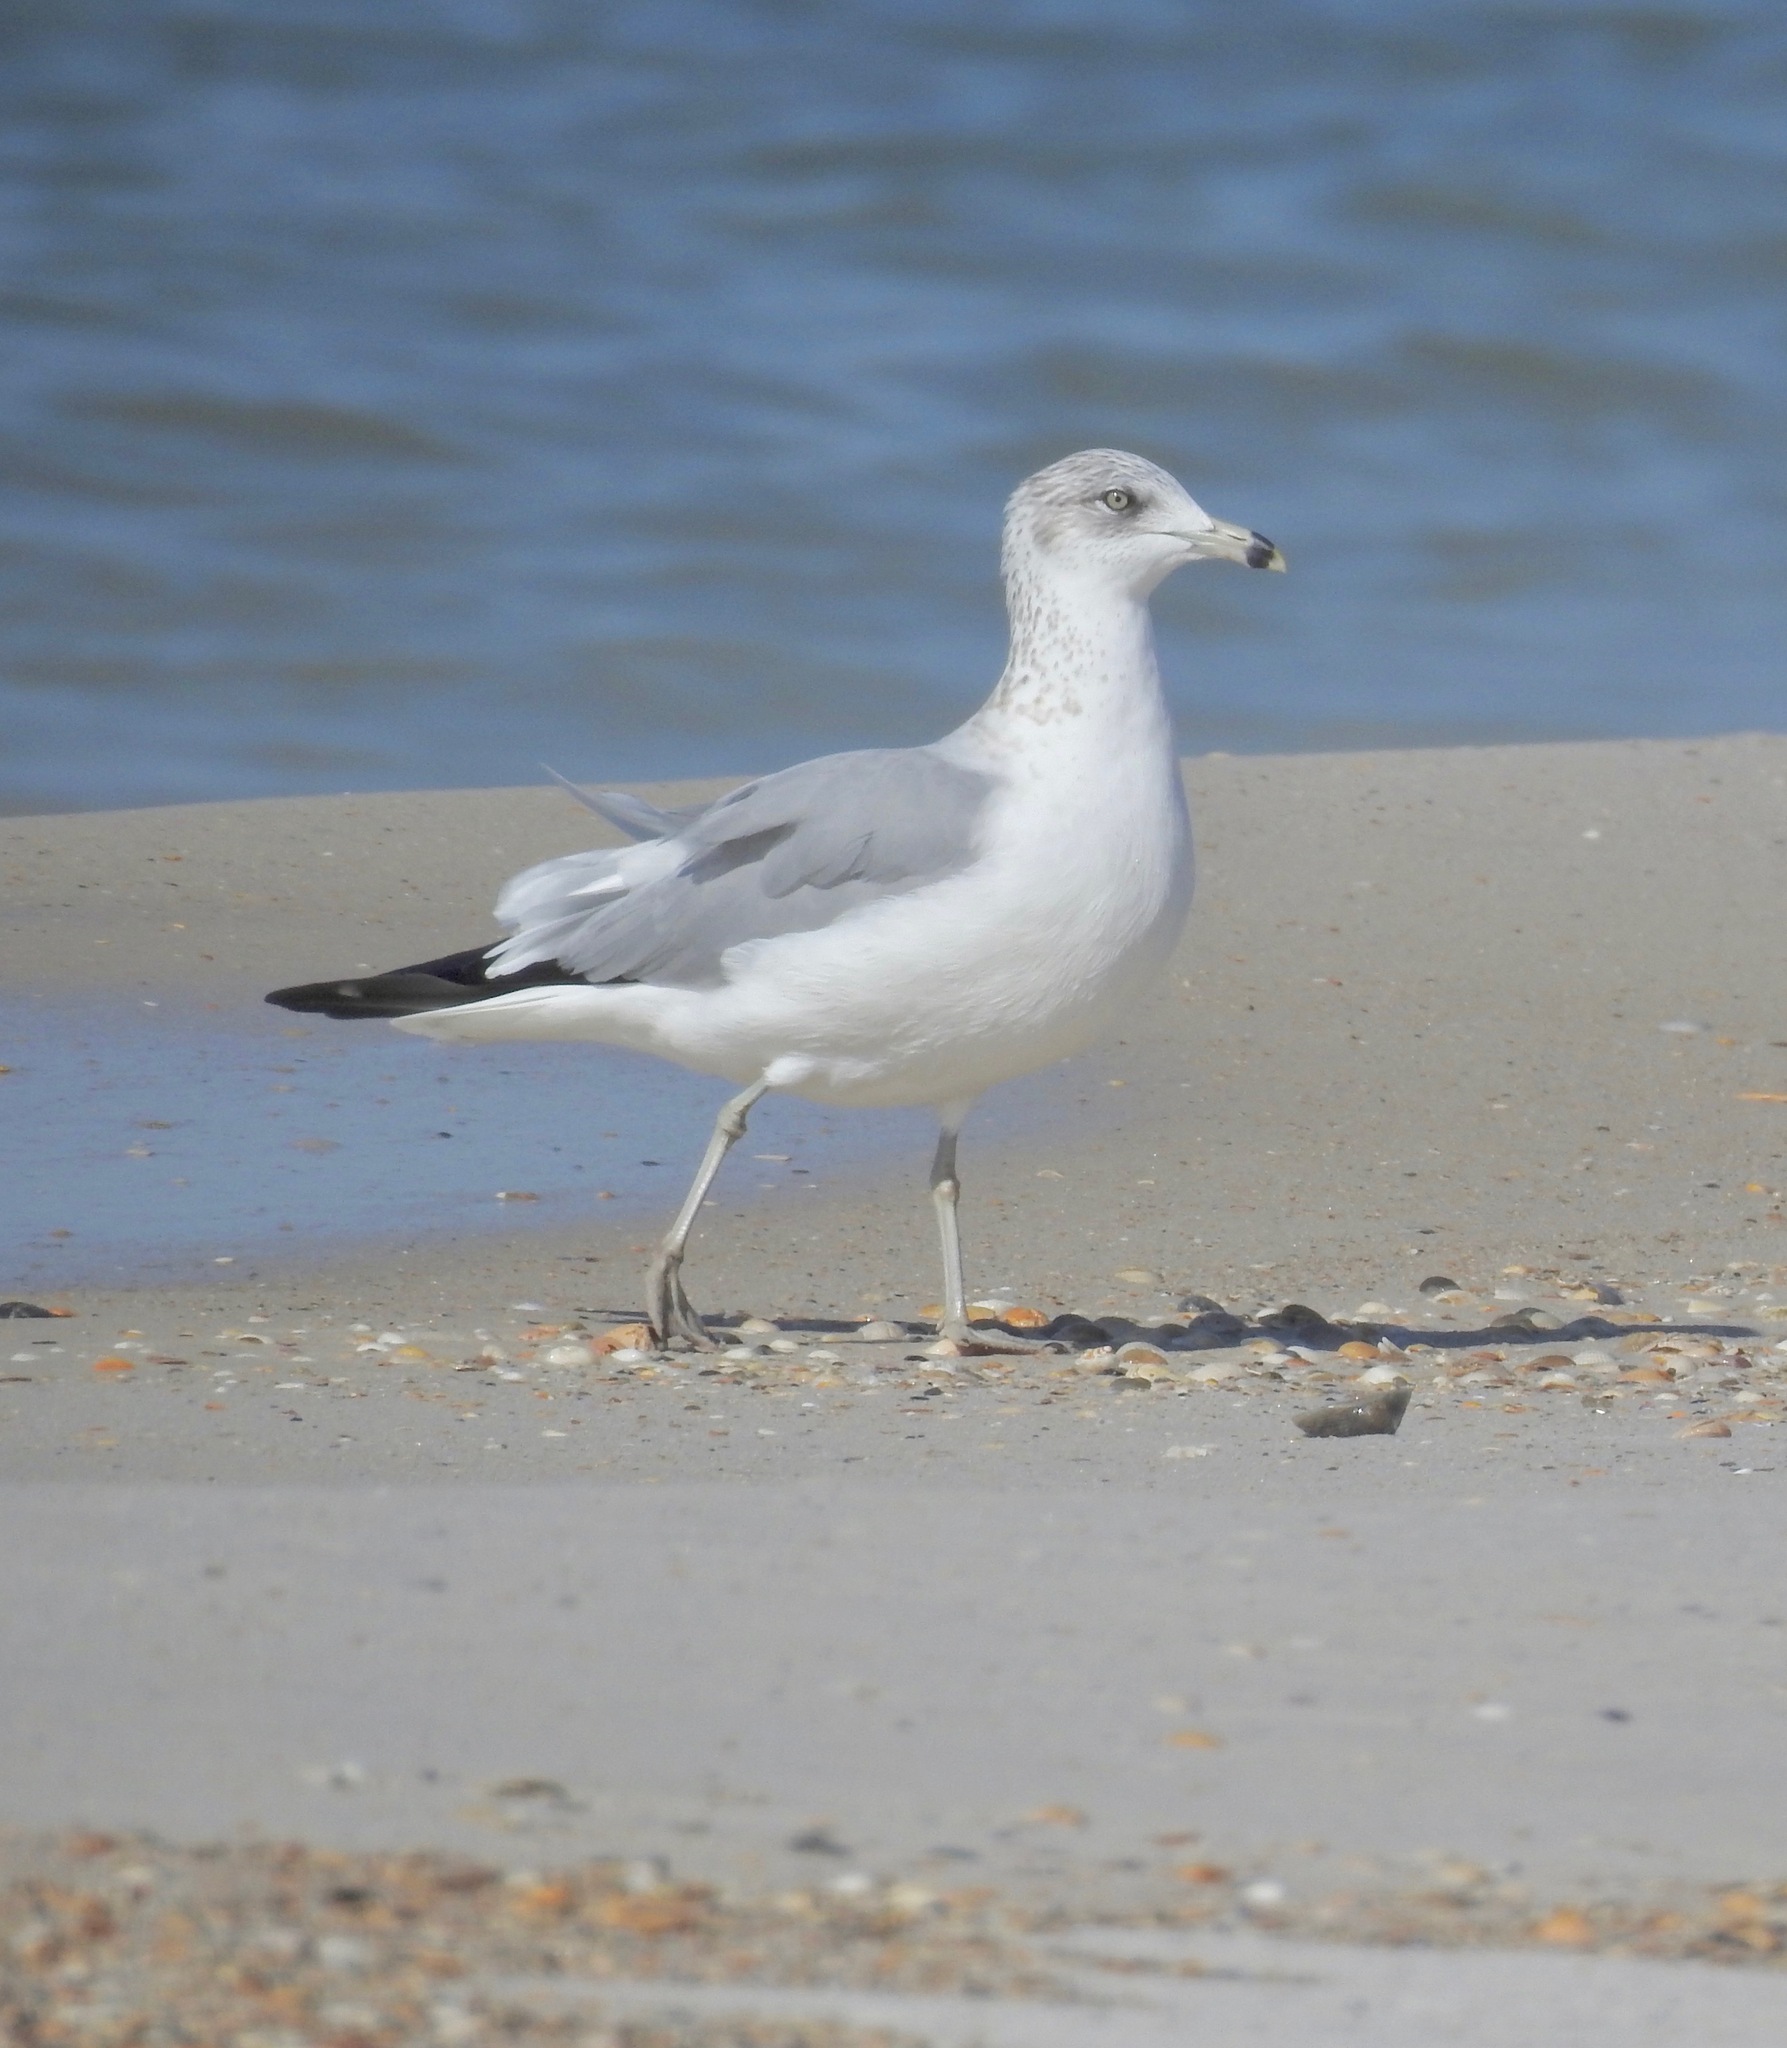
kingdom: Animalia
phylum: Chordata
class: Aves
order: Charadriiformes
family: Laridae
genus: Larus
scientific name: Larus delawarensis
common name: Ring-billed gull
